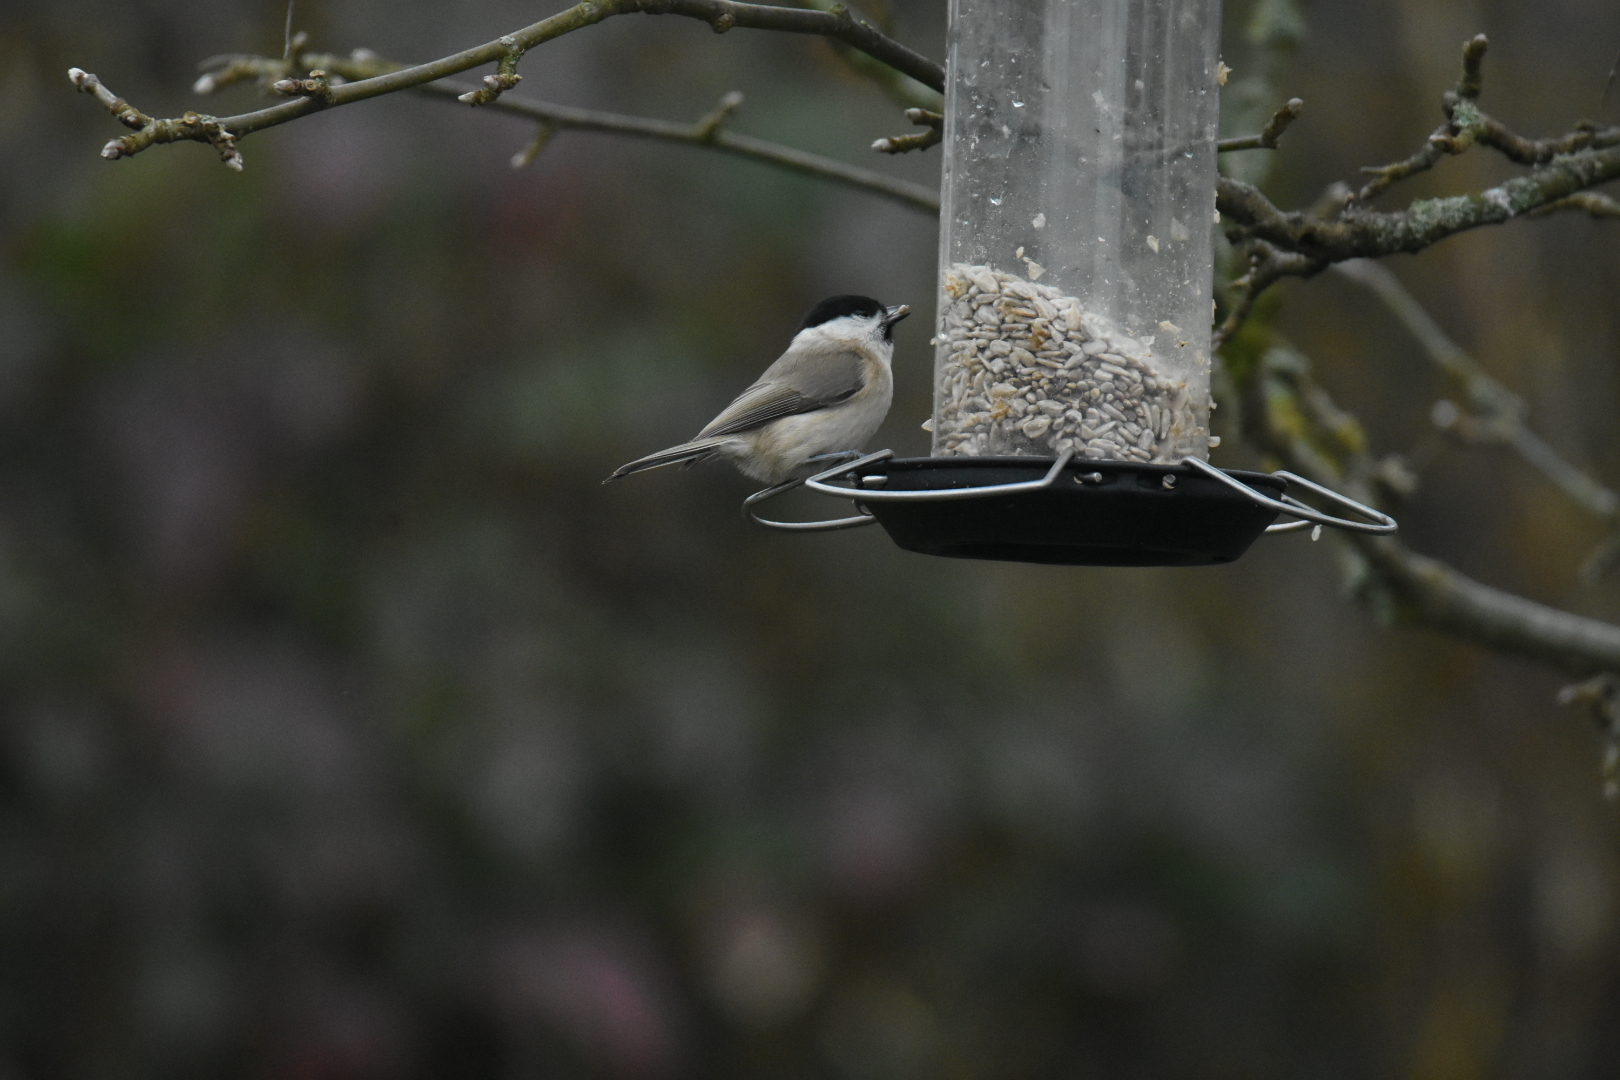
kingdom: Animalia
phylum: Chordata
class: Aves
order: Passeriformes
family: Paridae
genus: Poecile
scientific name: Poecile palustris
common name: Marsh tit
